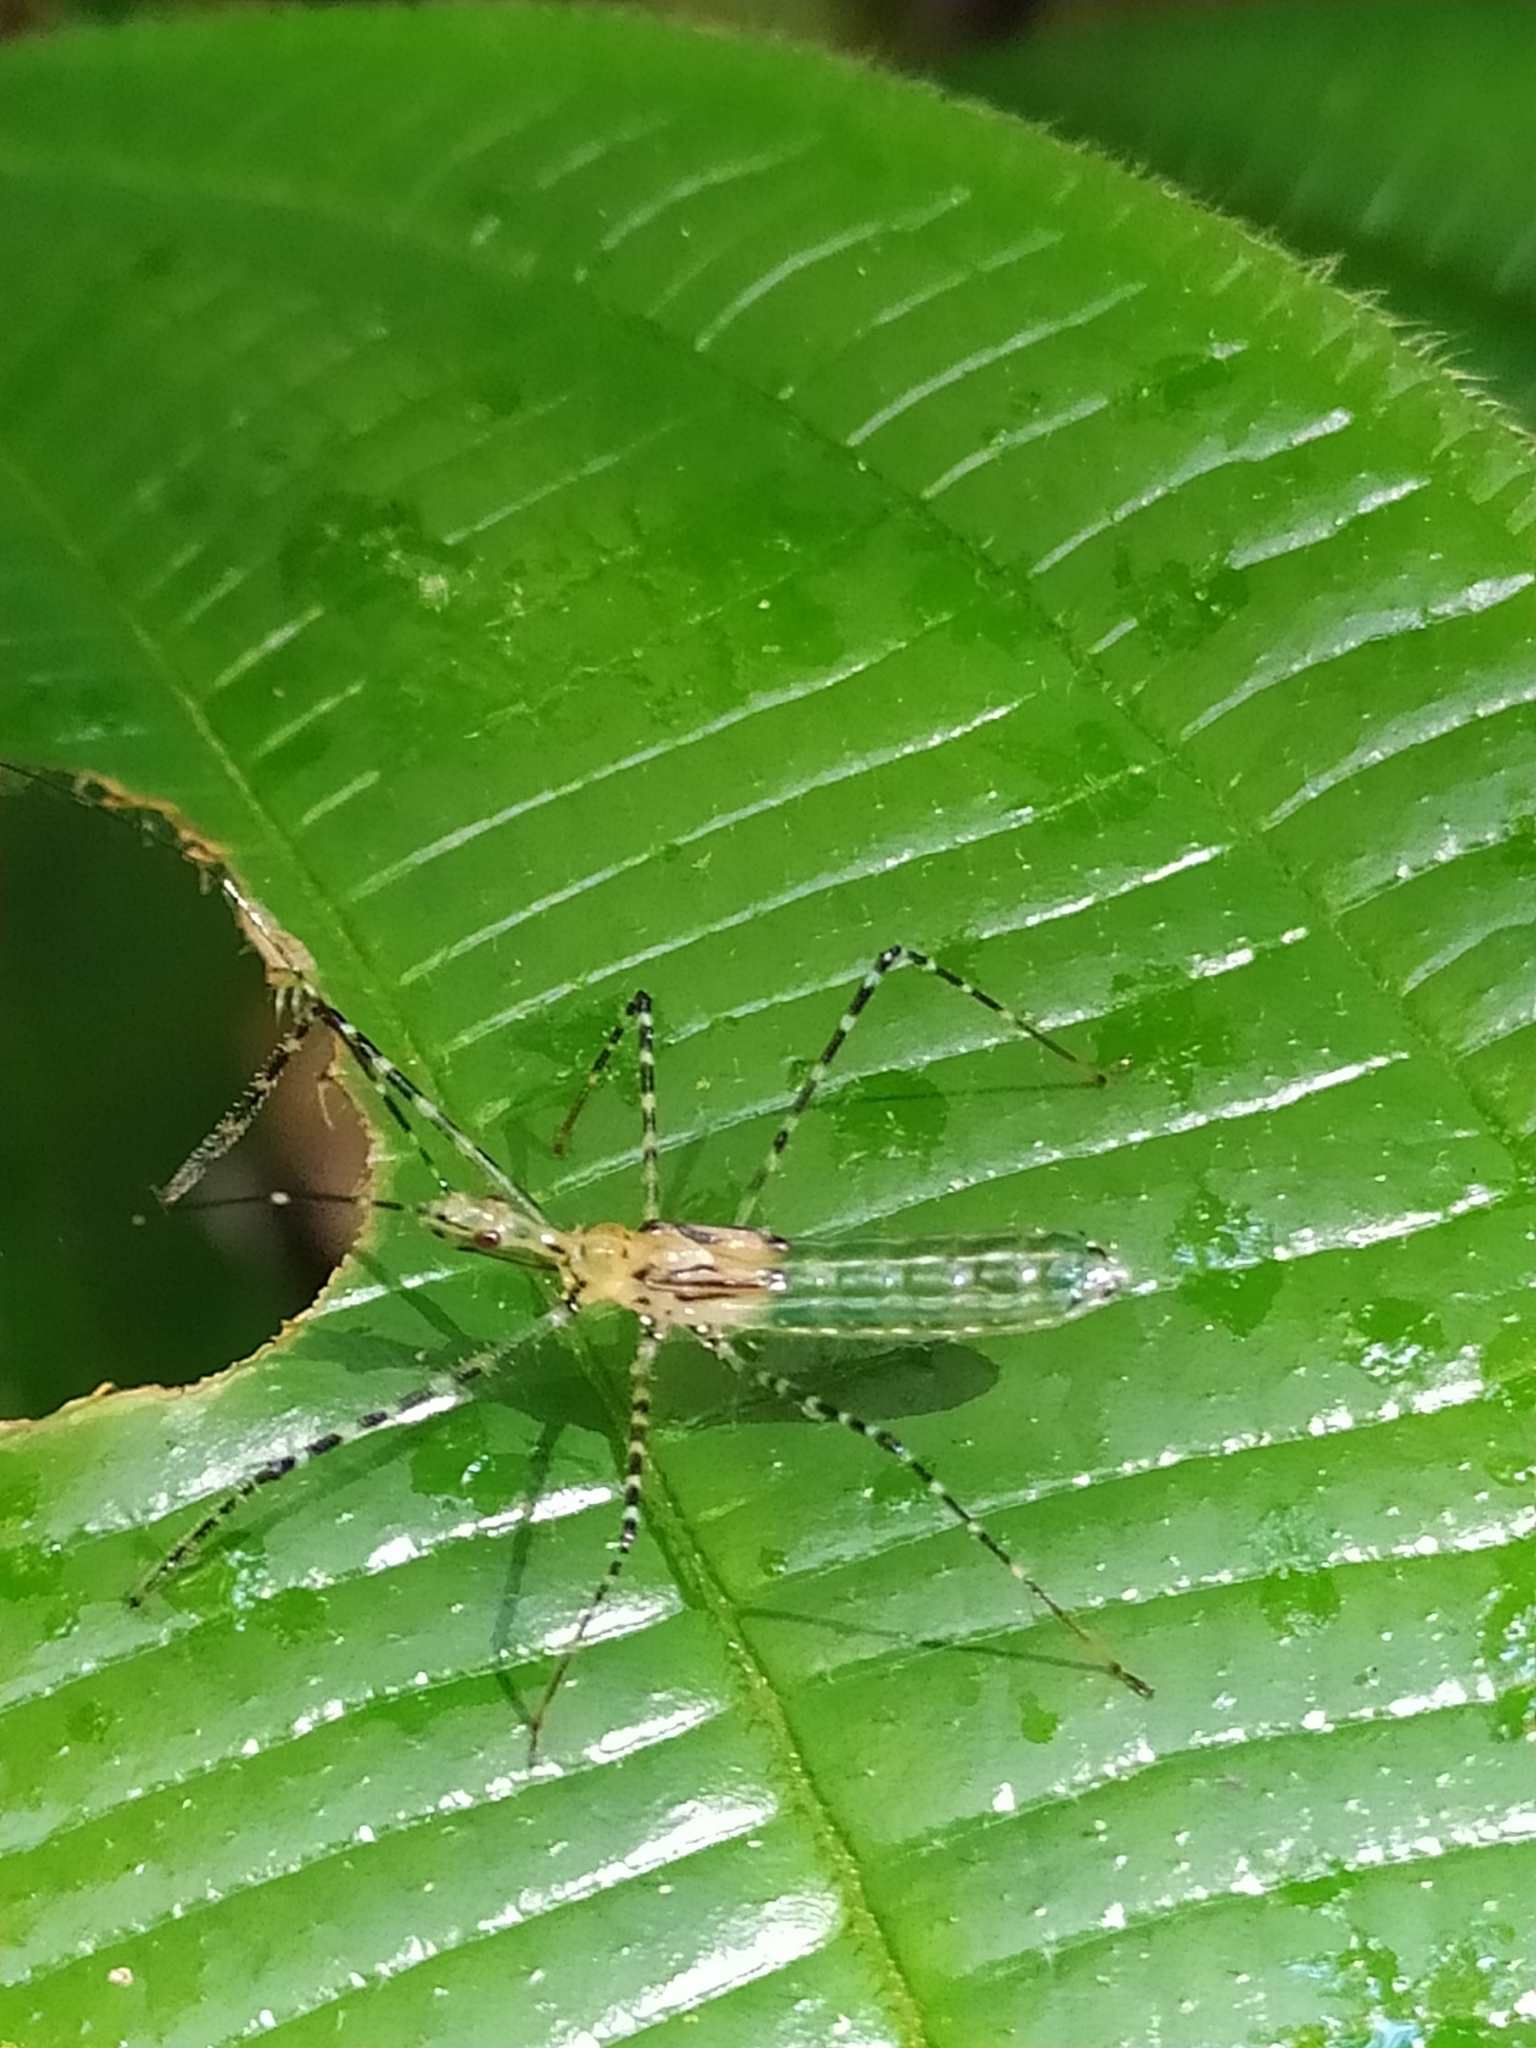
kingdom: Animalia
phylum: Arthropoda
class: Insecta
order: Hemiptera
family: Reduviidae
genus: Zelus
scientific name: Zelus annulosus
